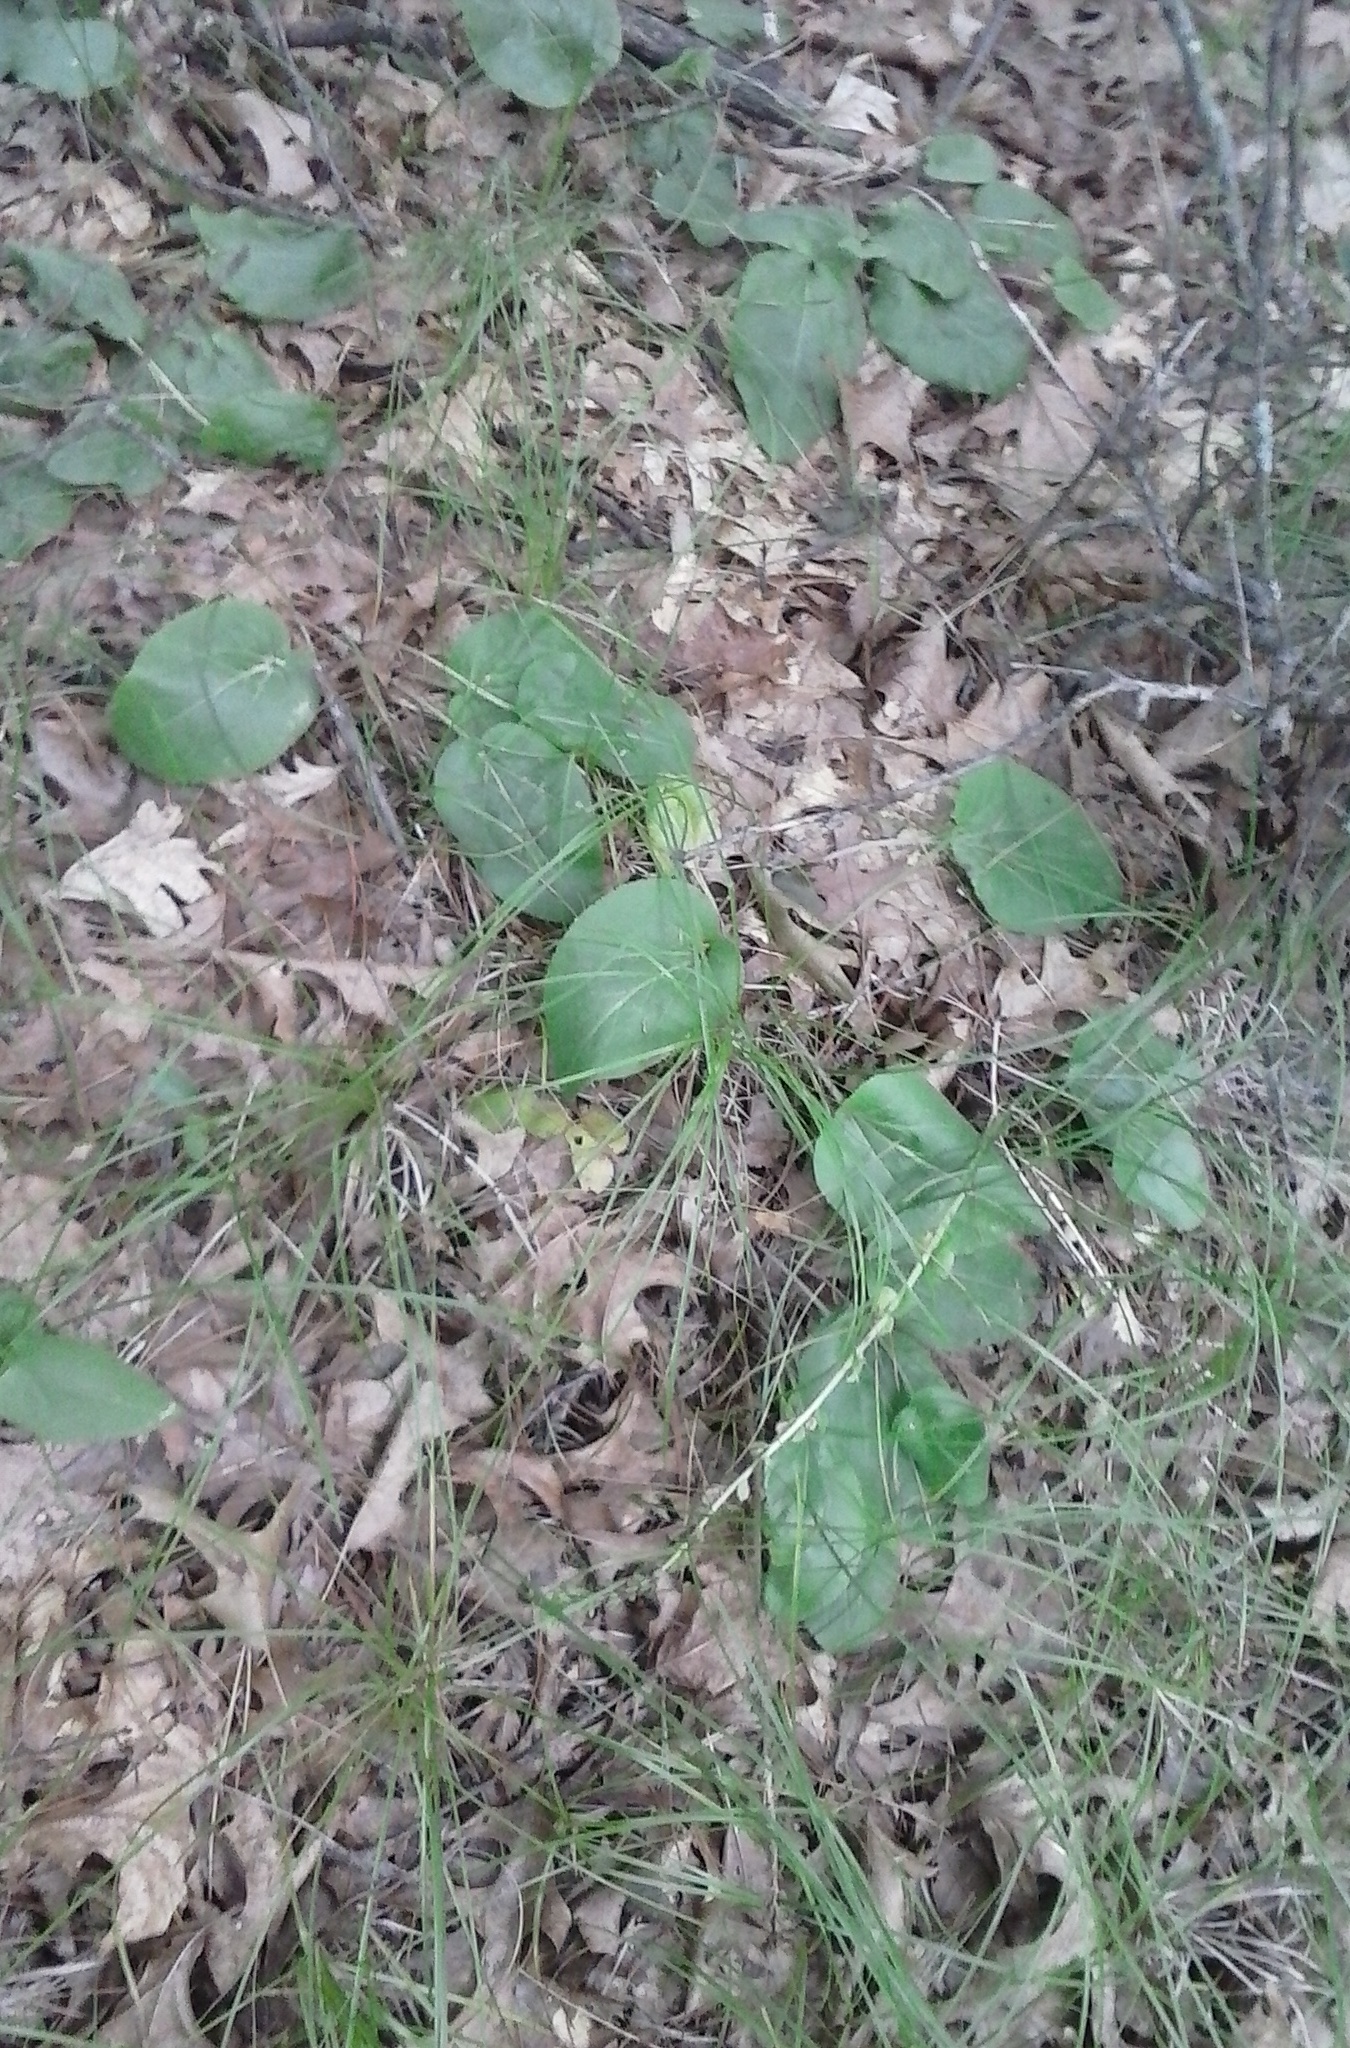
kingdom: Plantae
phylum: Tracheophyta
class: Magnoliopsida
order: Lamiales
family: Plantaginaceae
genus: Synthyris
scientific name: Synthyris bullii
